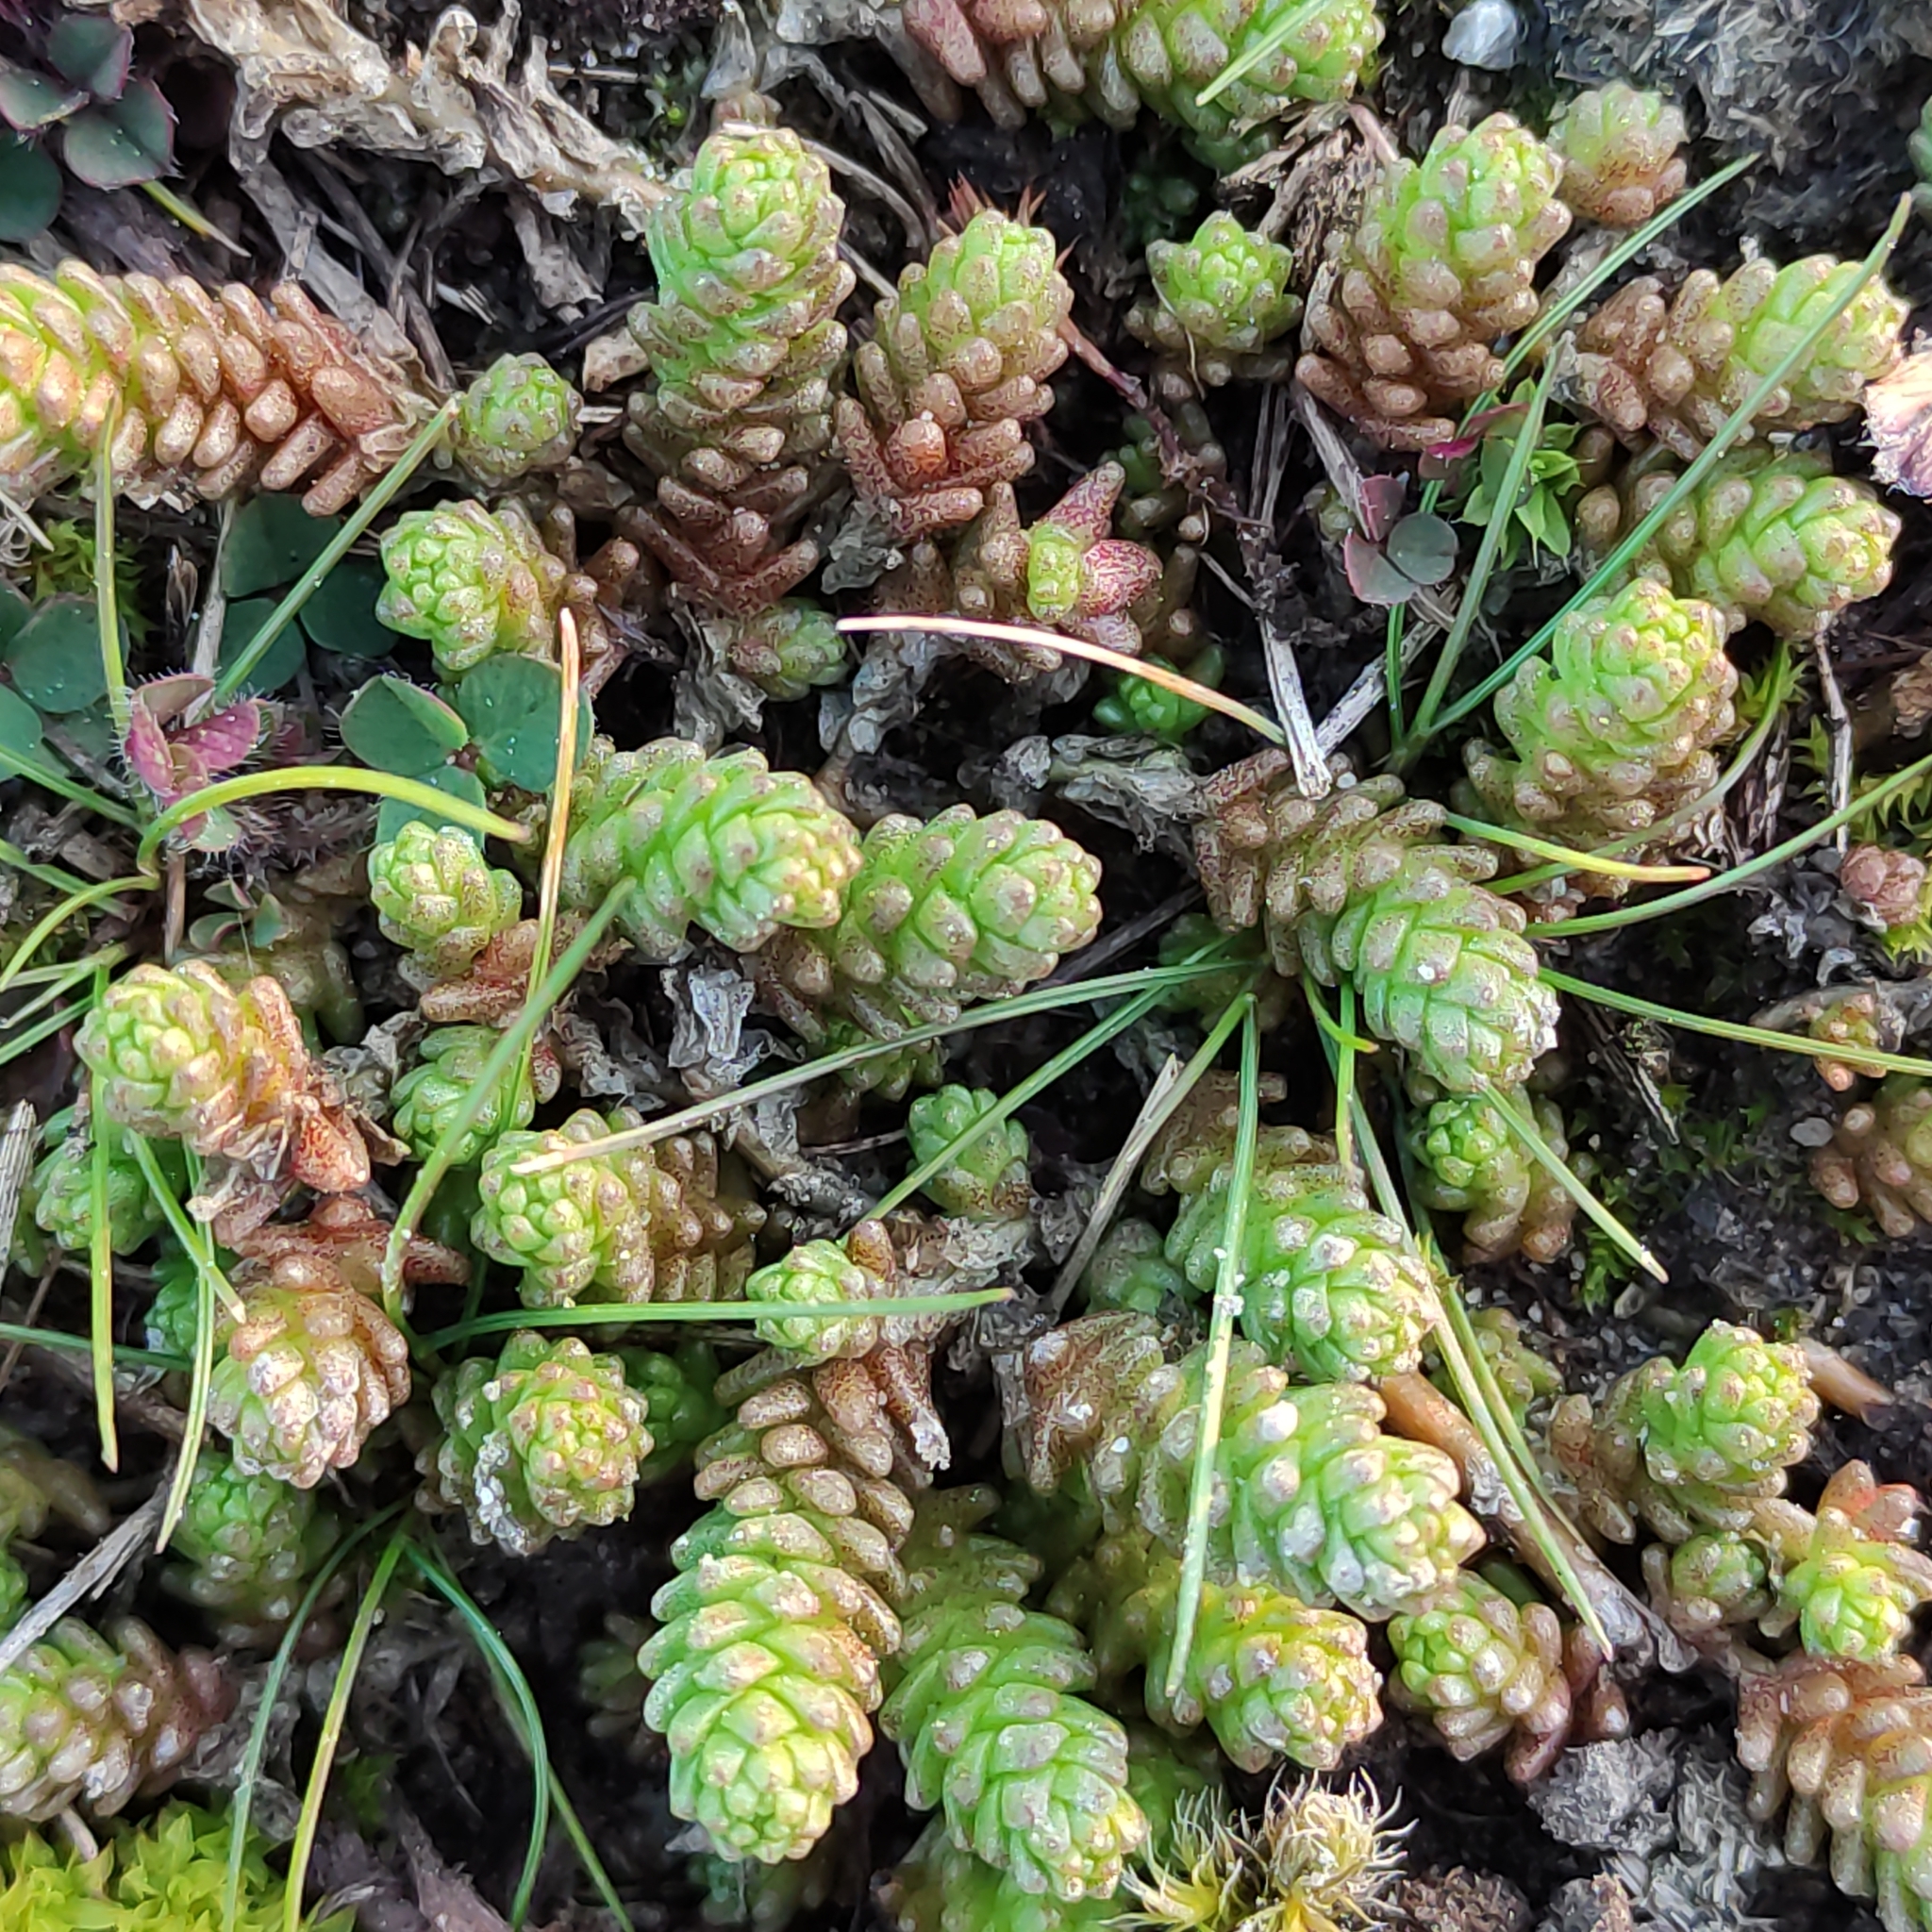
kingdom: Plantae
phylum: Tracheophyta
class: Magnoliopsida
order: Saxifragales
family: Crassulaceae
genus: Sedum
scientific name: Sedum acre
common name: Biting stonecrop
